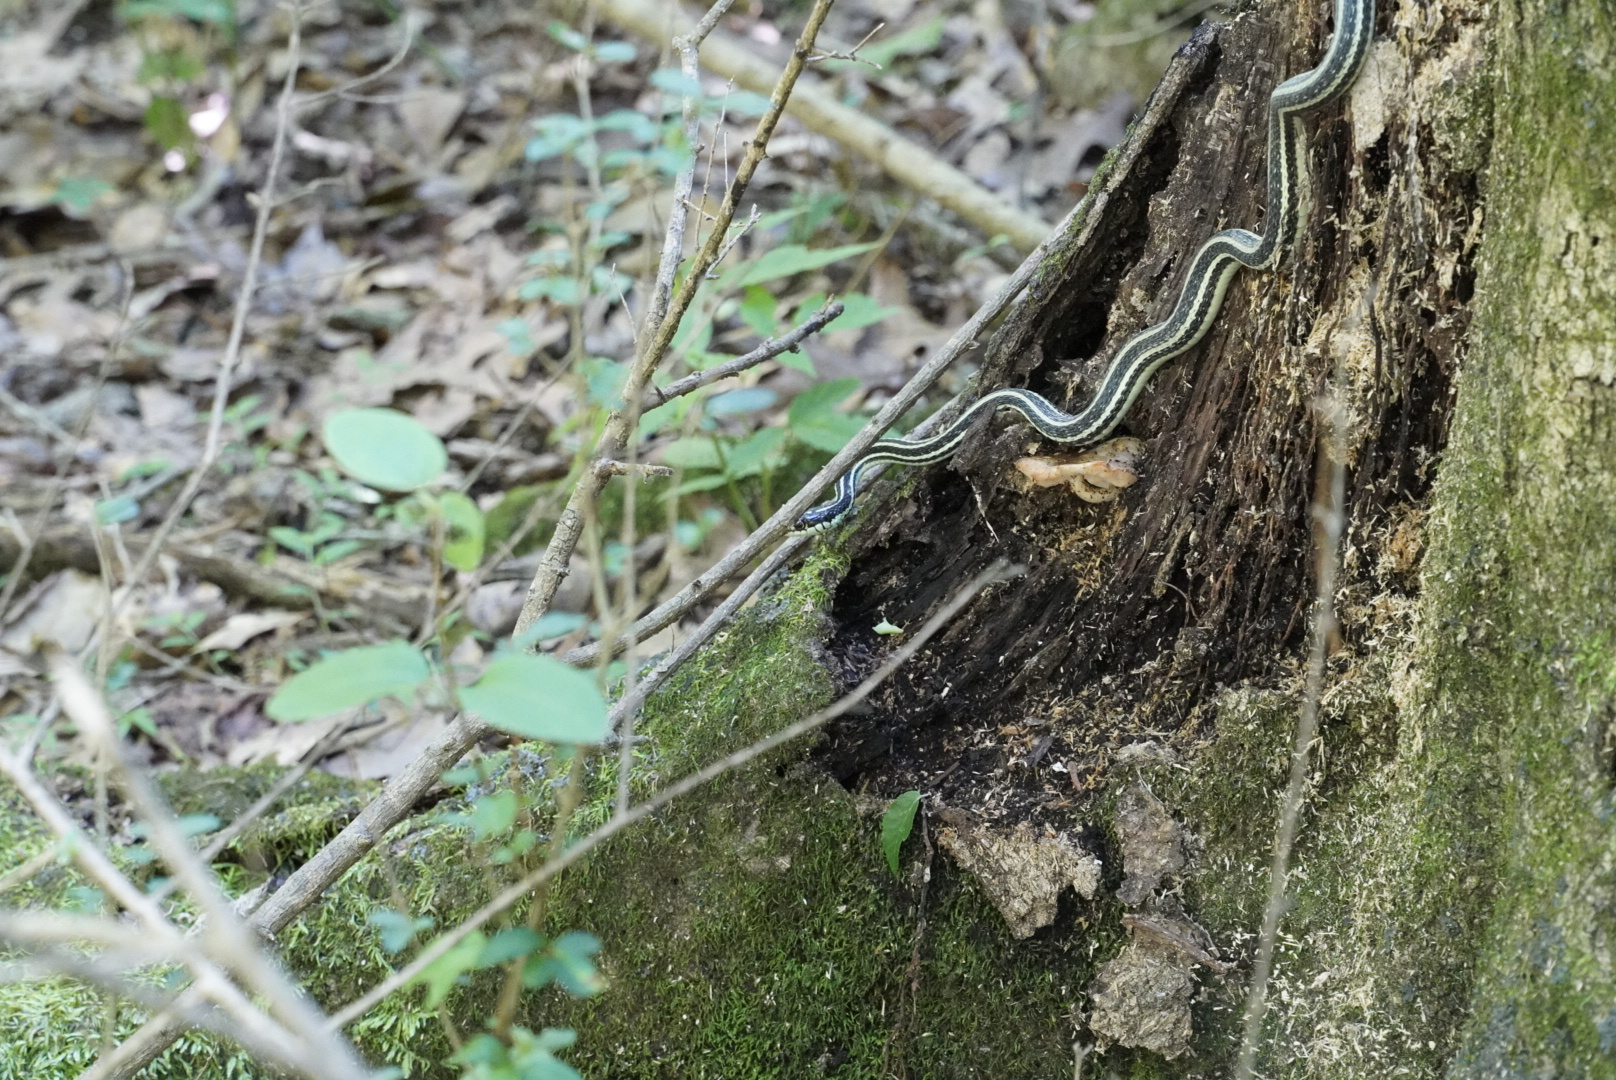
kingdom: Animalia
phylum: Chordata
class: Squamata
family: Colubridae
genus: Thamnophis
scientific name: Thamnophis proximus
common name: Western ribbon snake
